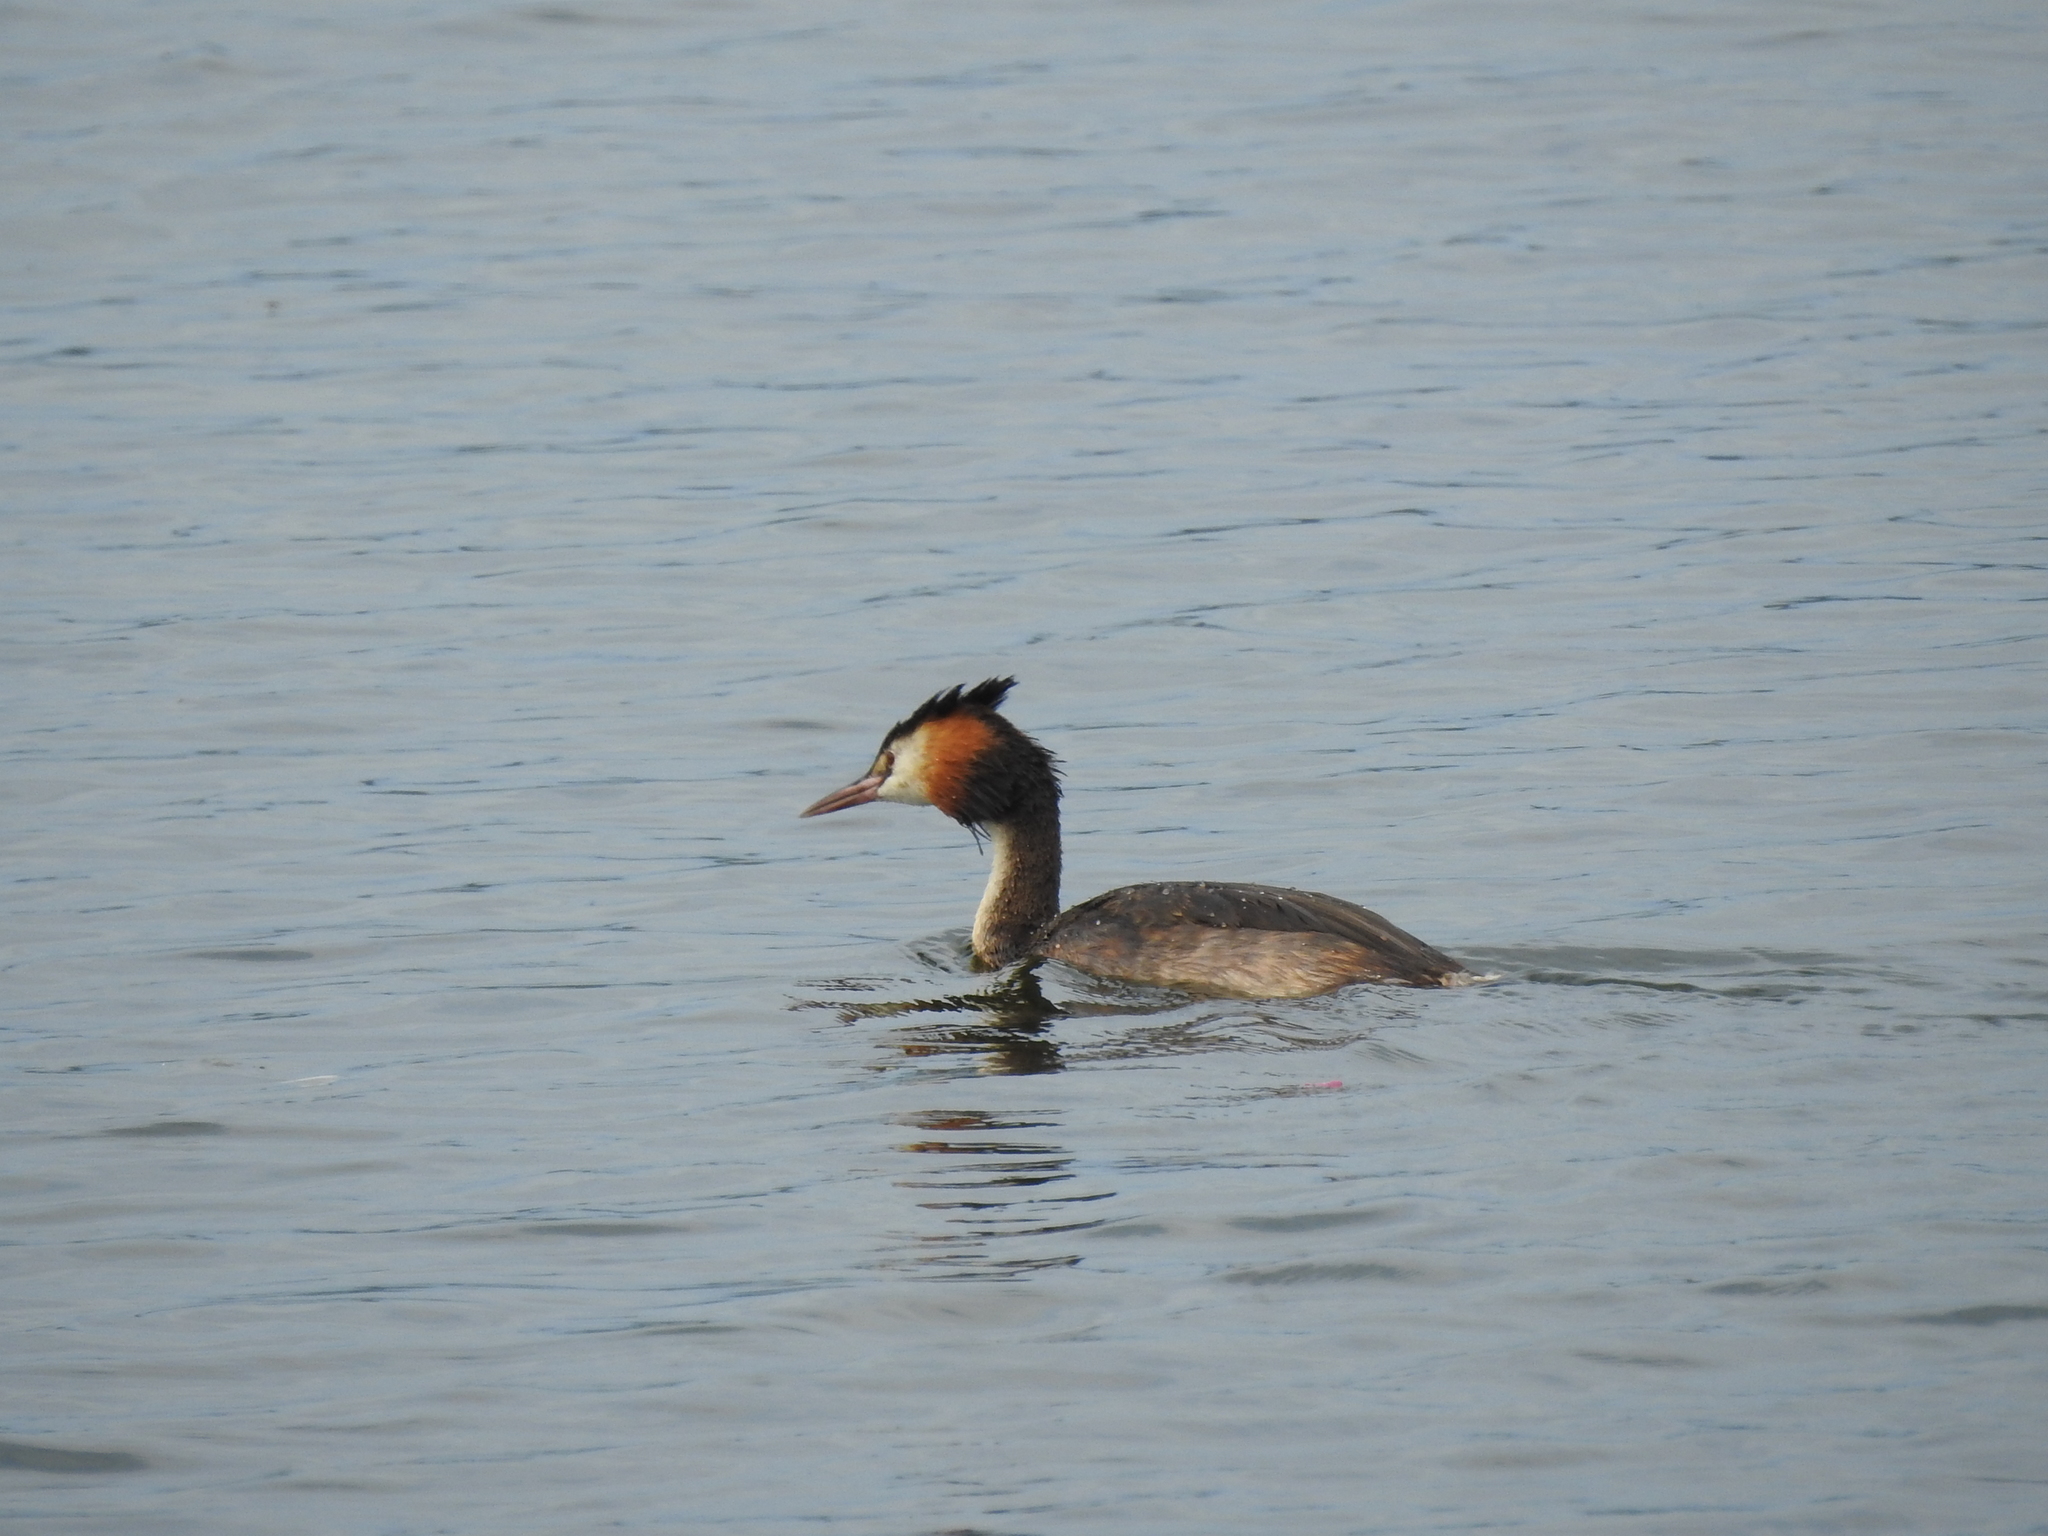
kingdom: Animalia
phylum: Chordata
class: Aves
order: Podicipediformes
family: Podicipedidae
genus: Podiceps
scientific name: Podiceps cristatus
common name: Great crested grebe
